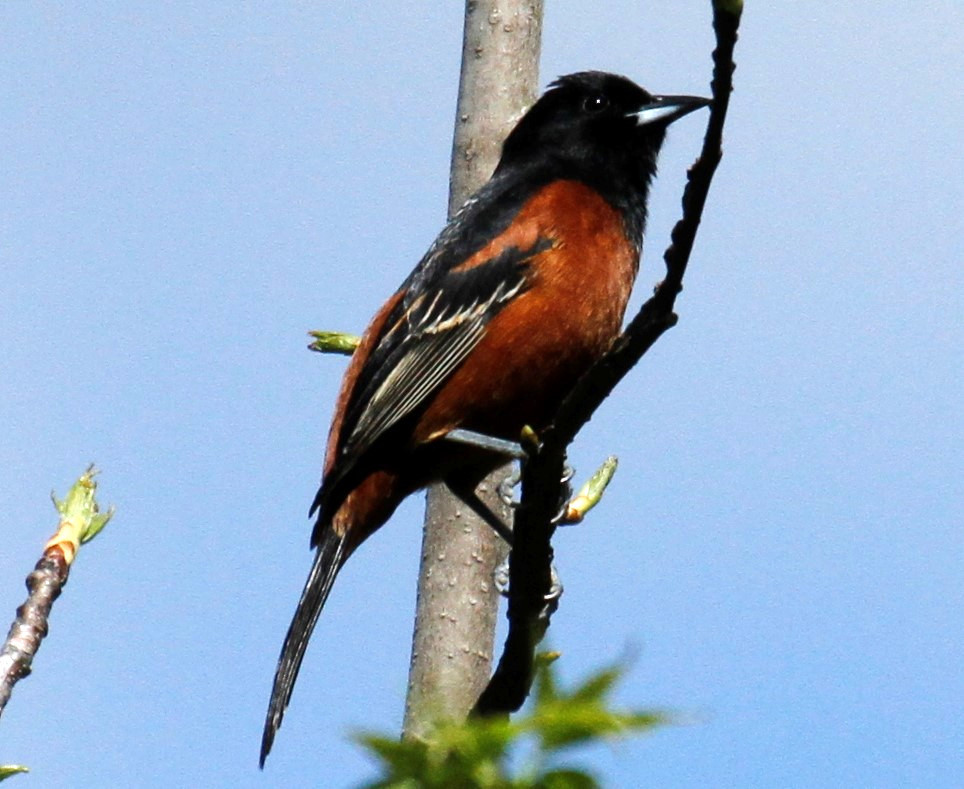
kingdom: Animalia
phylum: Chordata
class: Aves
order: Passeriformes
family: Icteridae
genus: Icterus
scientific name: Icterus spurius
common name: Orchard oriole
